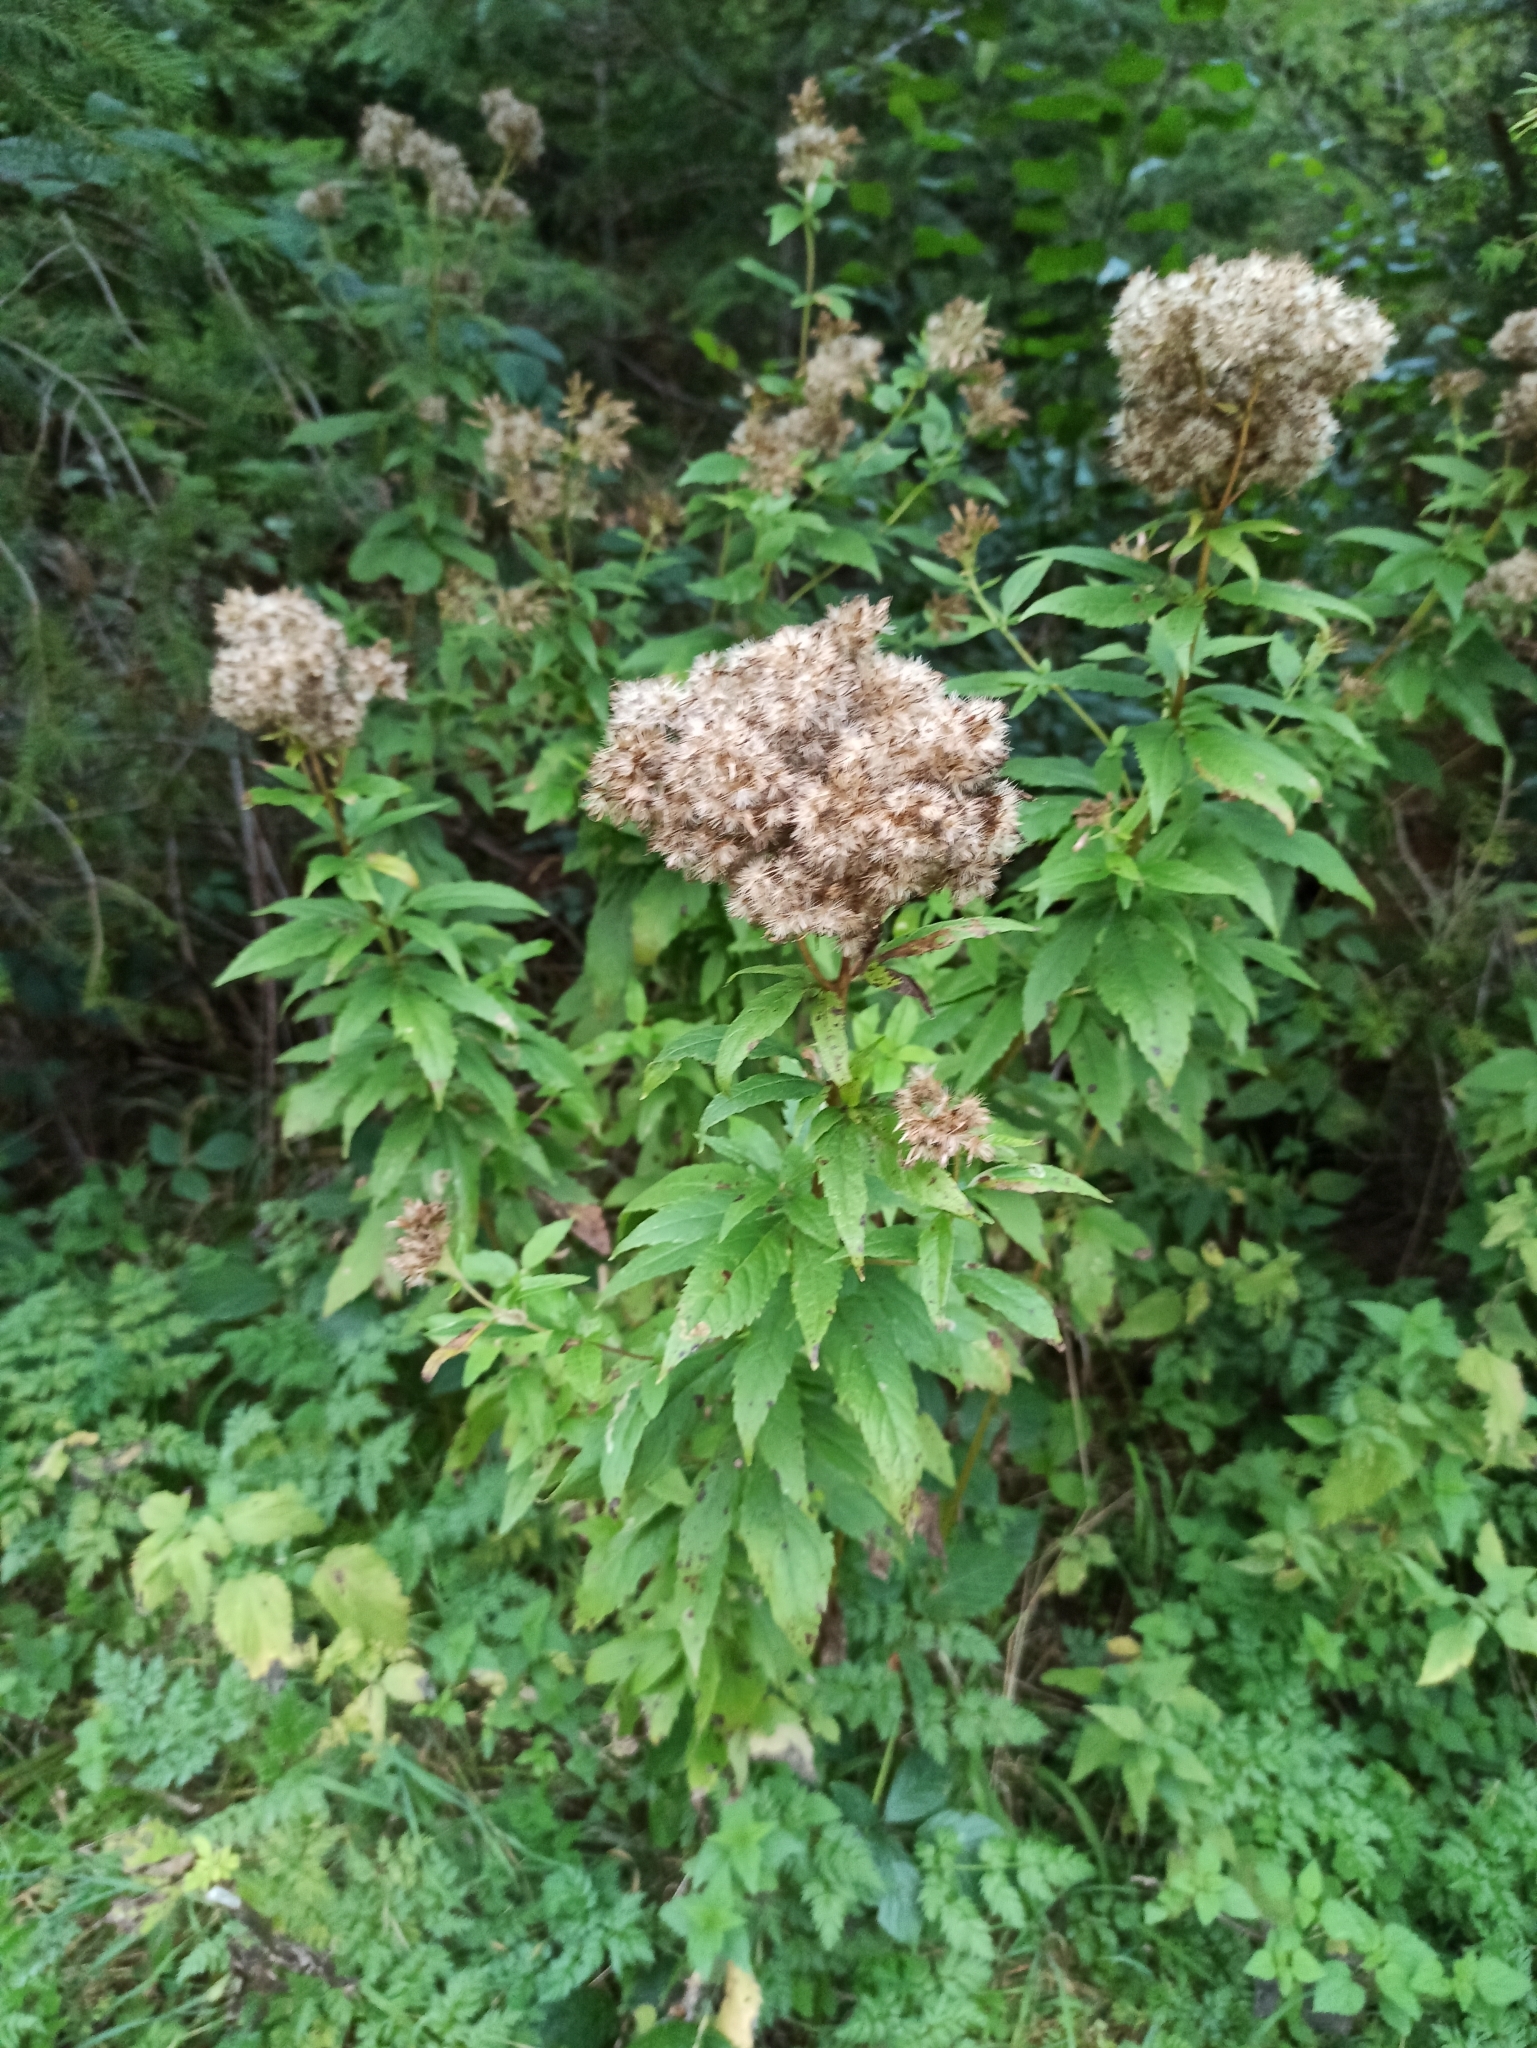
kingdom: Plantae
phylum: Tracheophyta
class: Magnoliopsida
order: Asterales
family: Asteraceae
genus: Eupatorium
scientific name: Eupatorium cannabinum
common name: Hemp-agrimony
